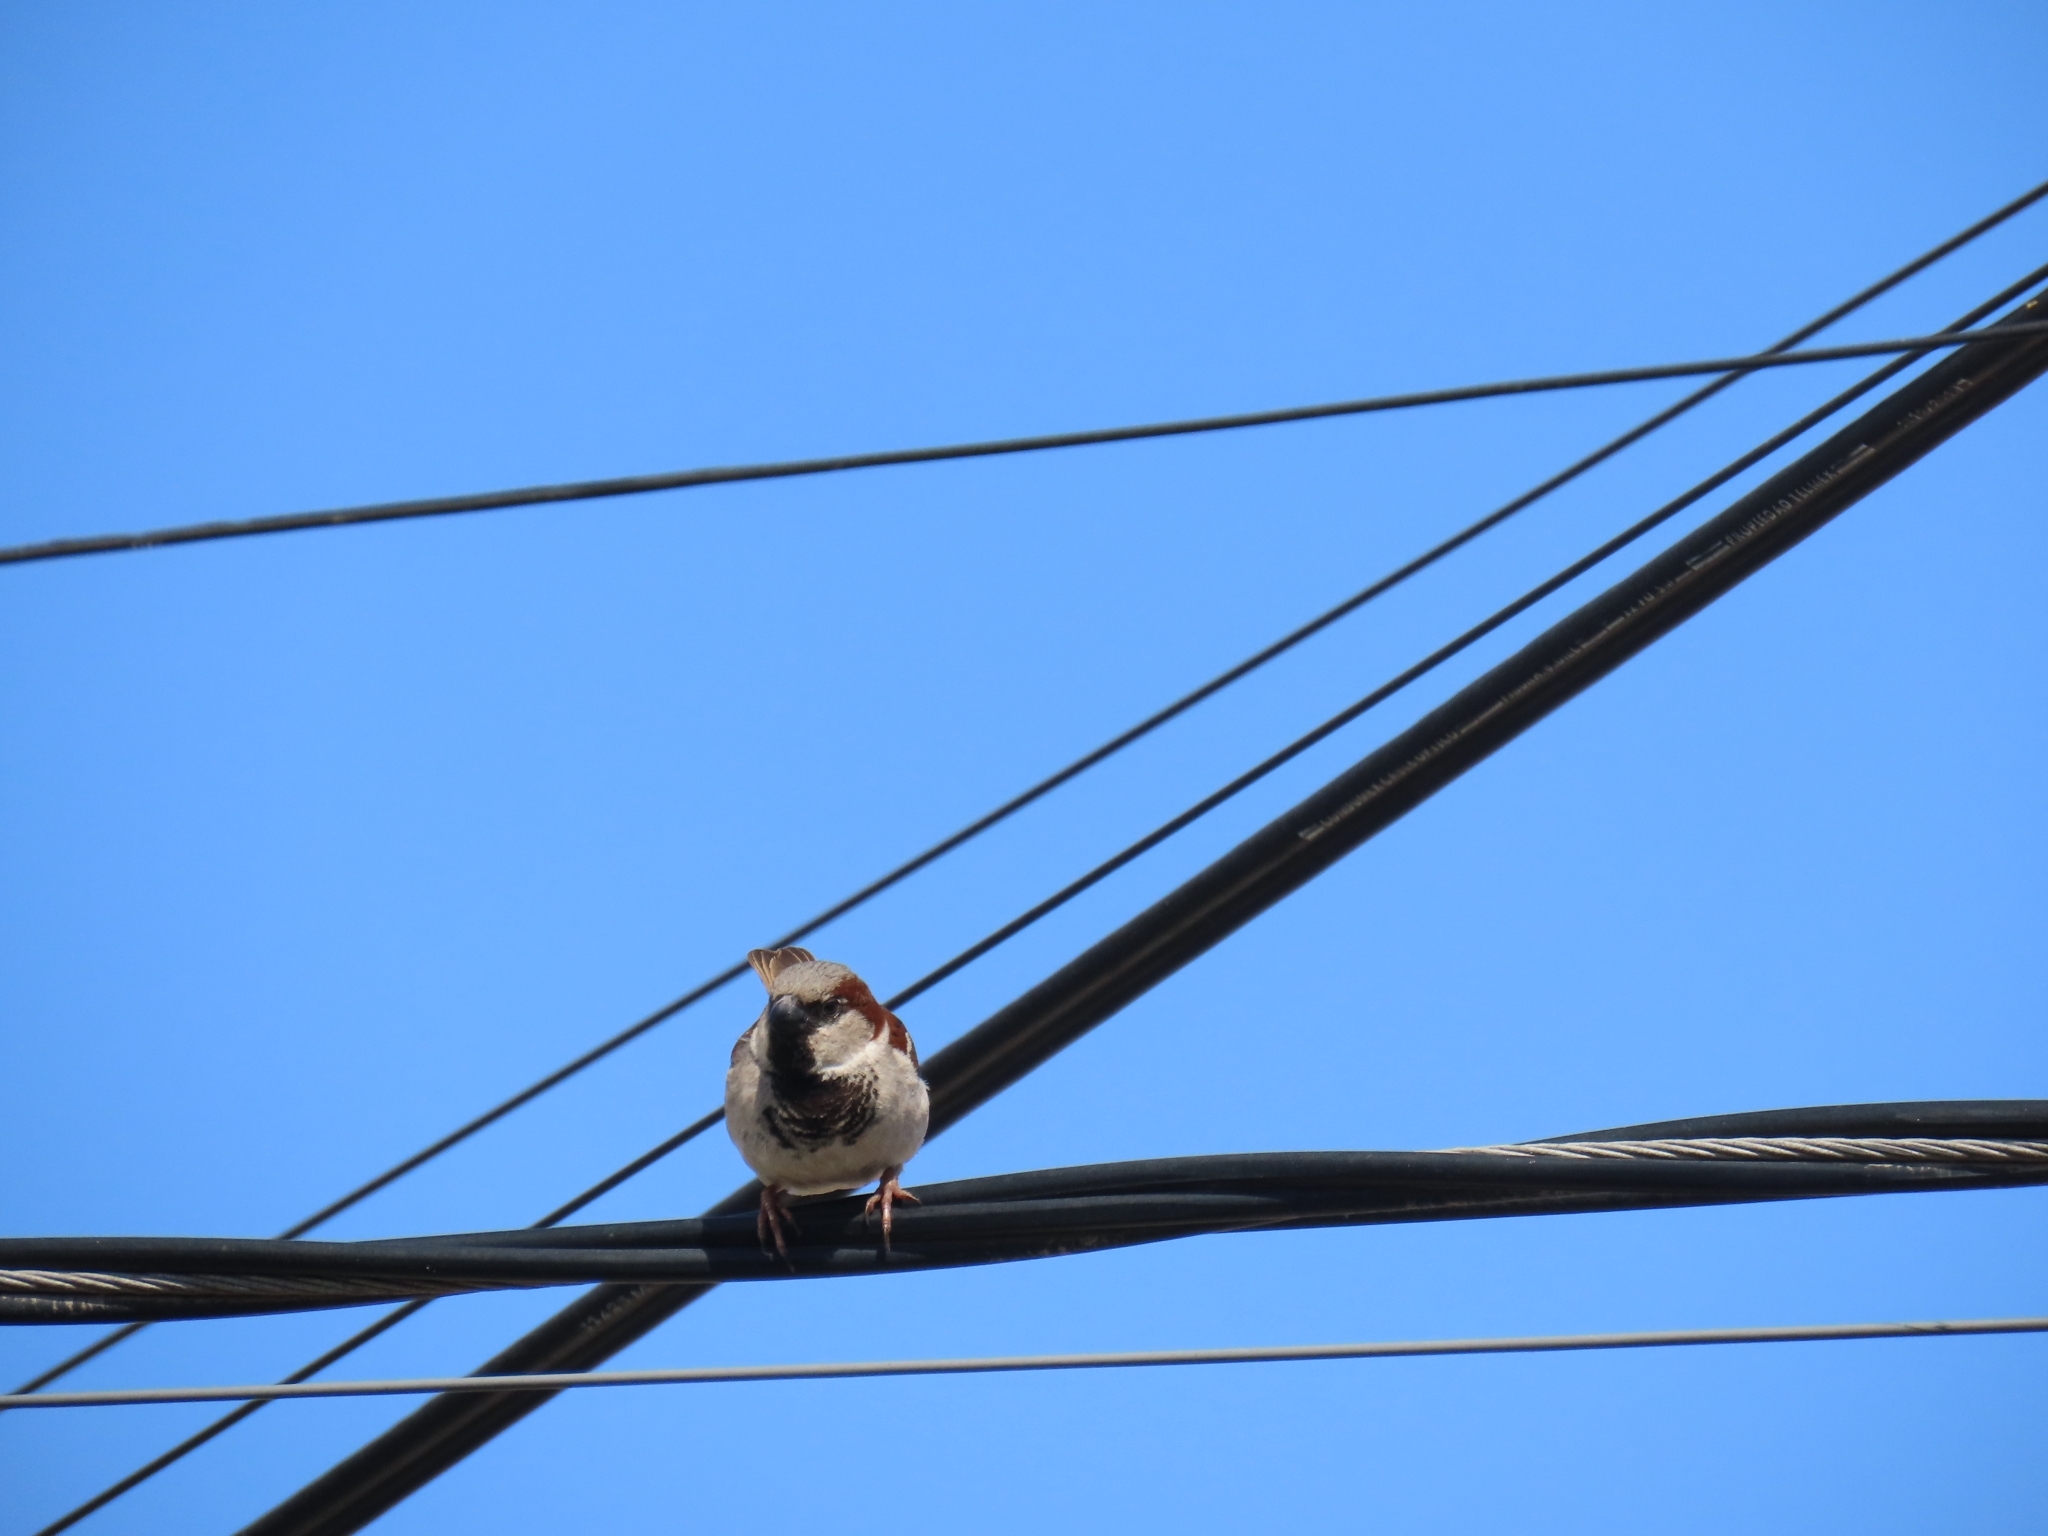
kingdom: Animalia
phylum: Chordata
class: Aves
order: Passeriformes
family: Passeridae
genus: Passer
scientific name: Passer domesticus
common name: House sparrow
